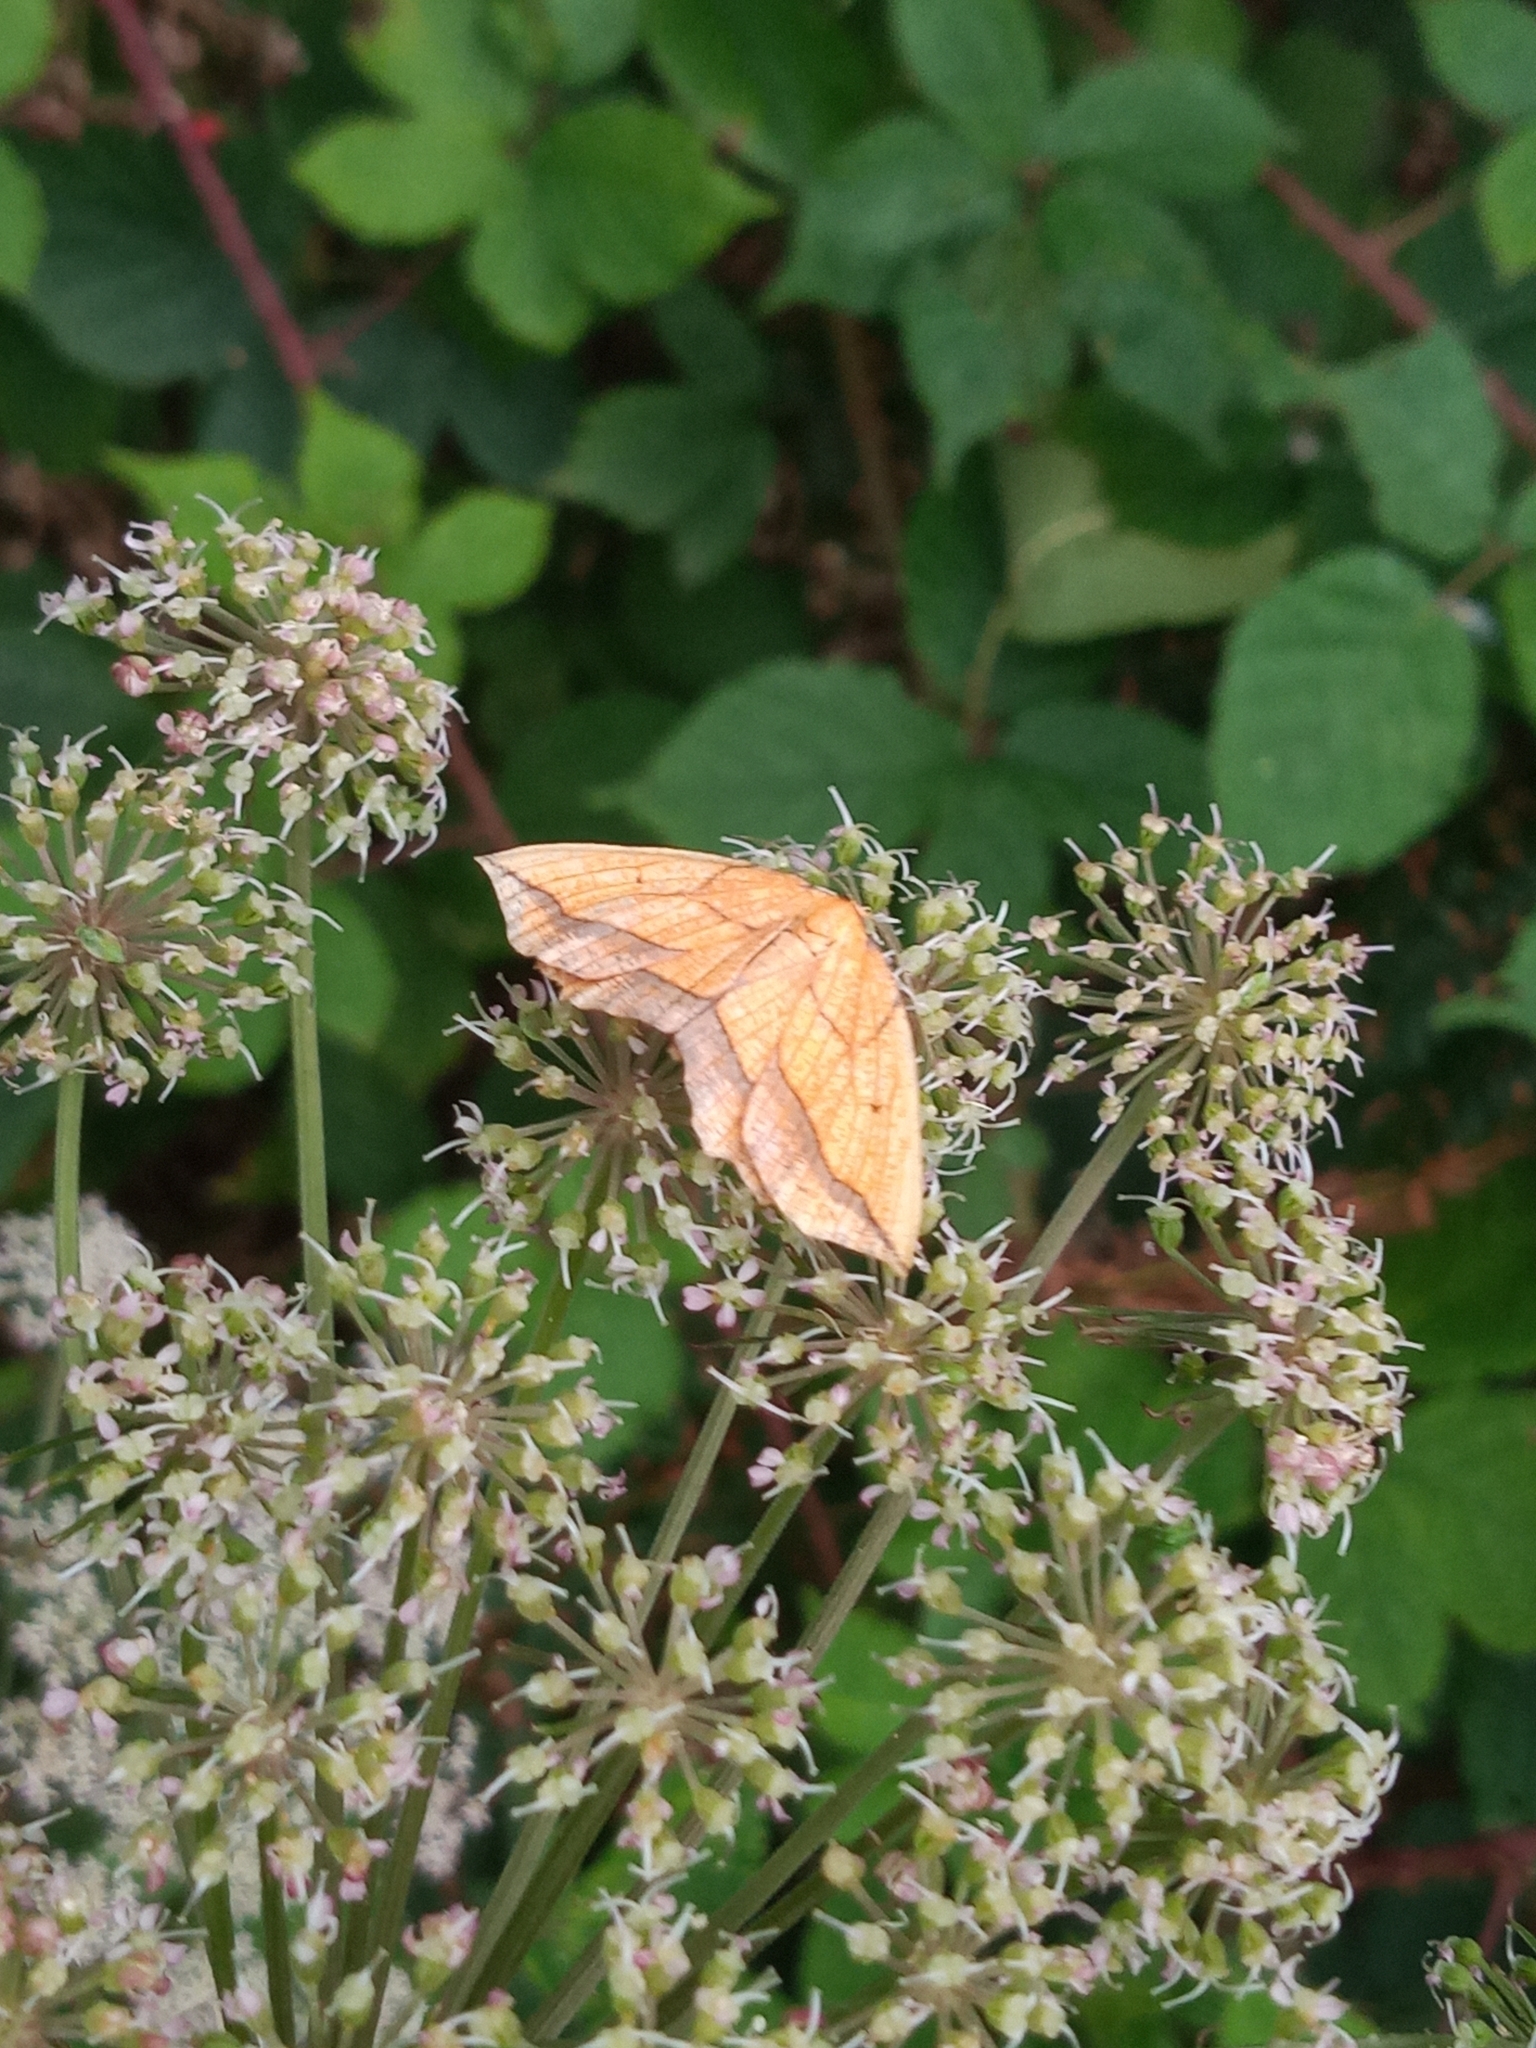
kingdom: Animalia
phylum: Arthropoda
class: Insecta
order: Lepidoptera
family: Geometridae
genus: Epione
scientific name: Epione repandaria
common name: Bordered beauty
